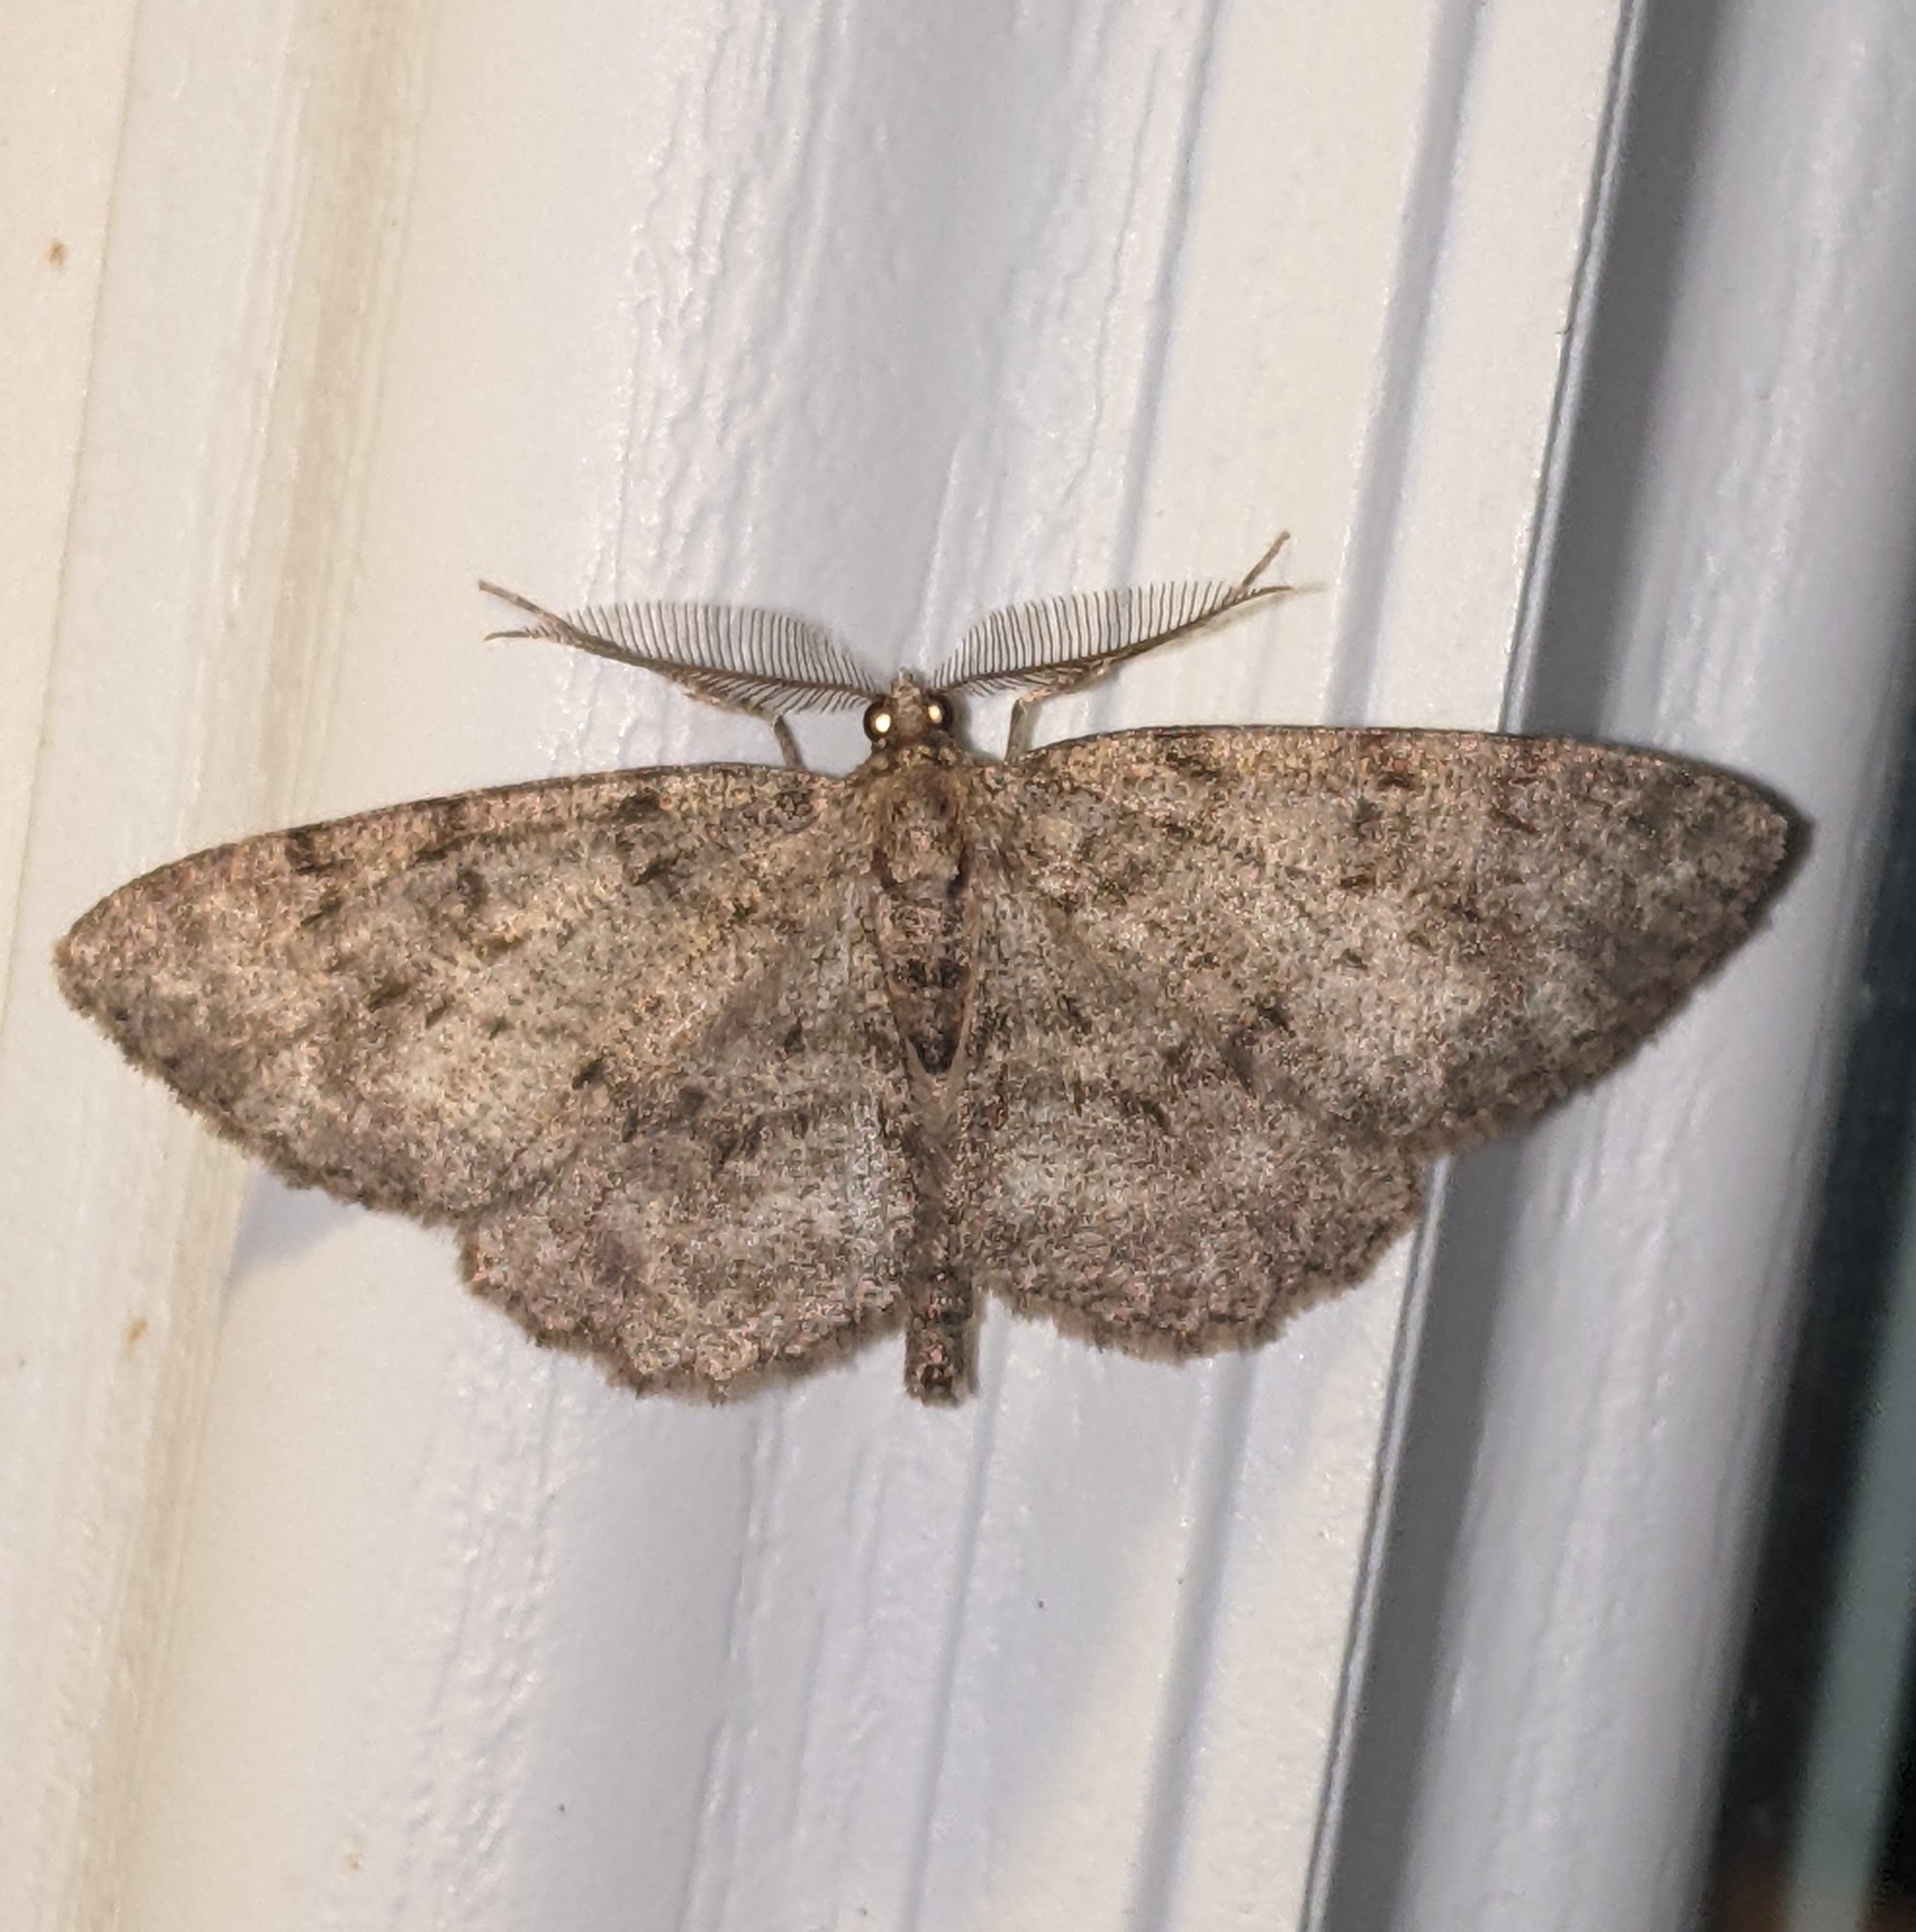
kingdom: Animalia
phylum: Arthropoda
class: Insecta
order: Lepidoptera
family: Geometridae
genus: Protoboarmia
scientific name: Protoboarmia porcelaria
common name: Porcelain gray
